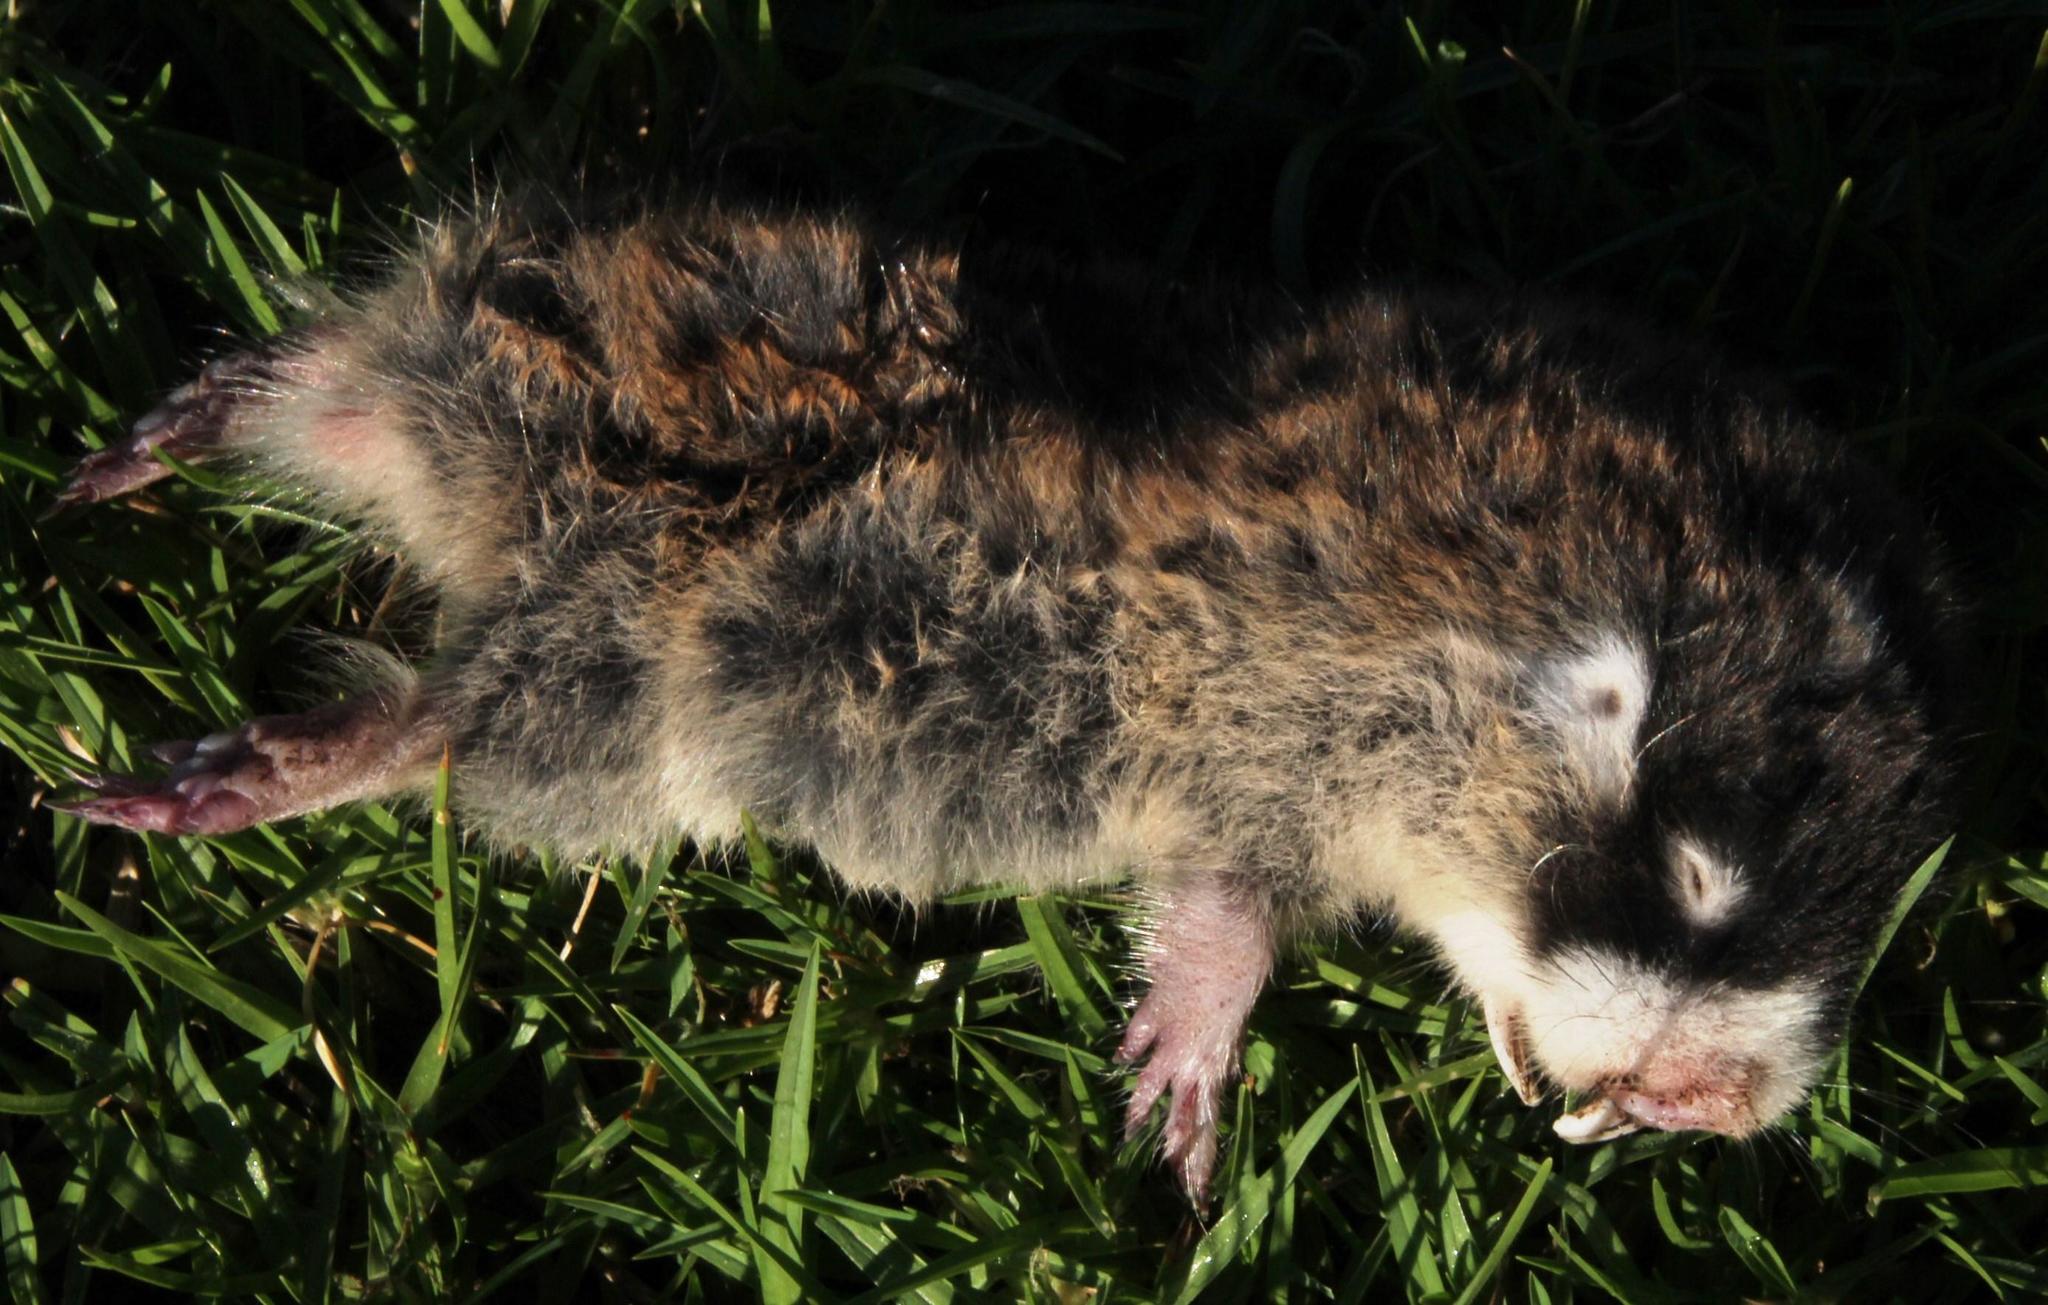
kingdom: Animalia
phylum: Chordata
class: Mammalia
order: Rodentia
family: Bathyergidae
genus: Georychus
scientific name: Georychus capensis
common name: Cape mole-rat
